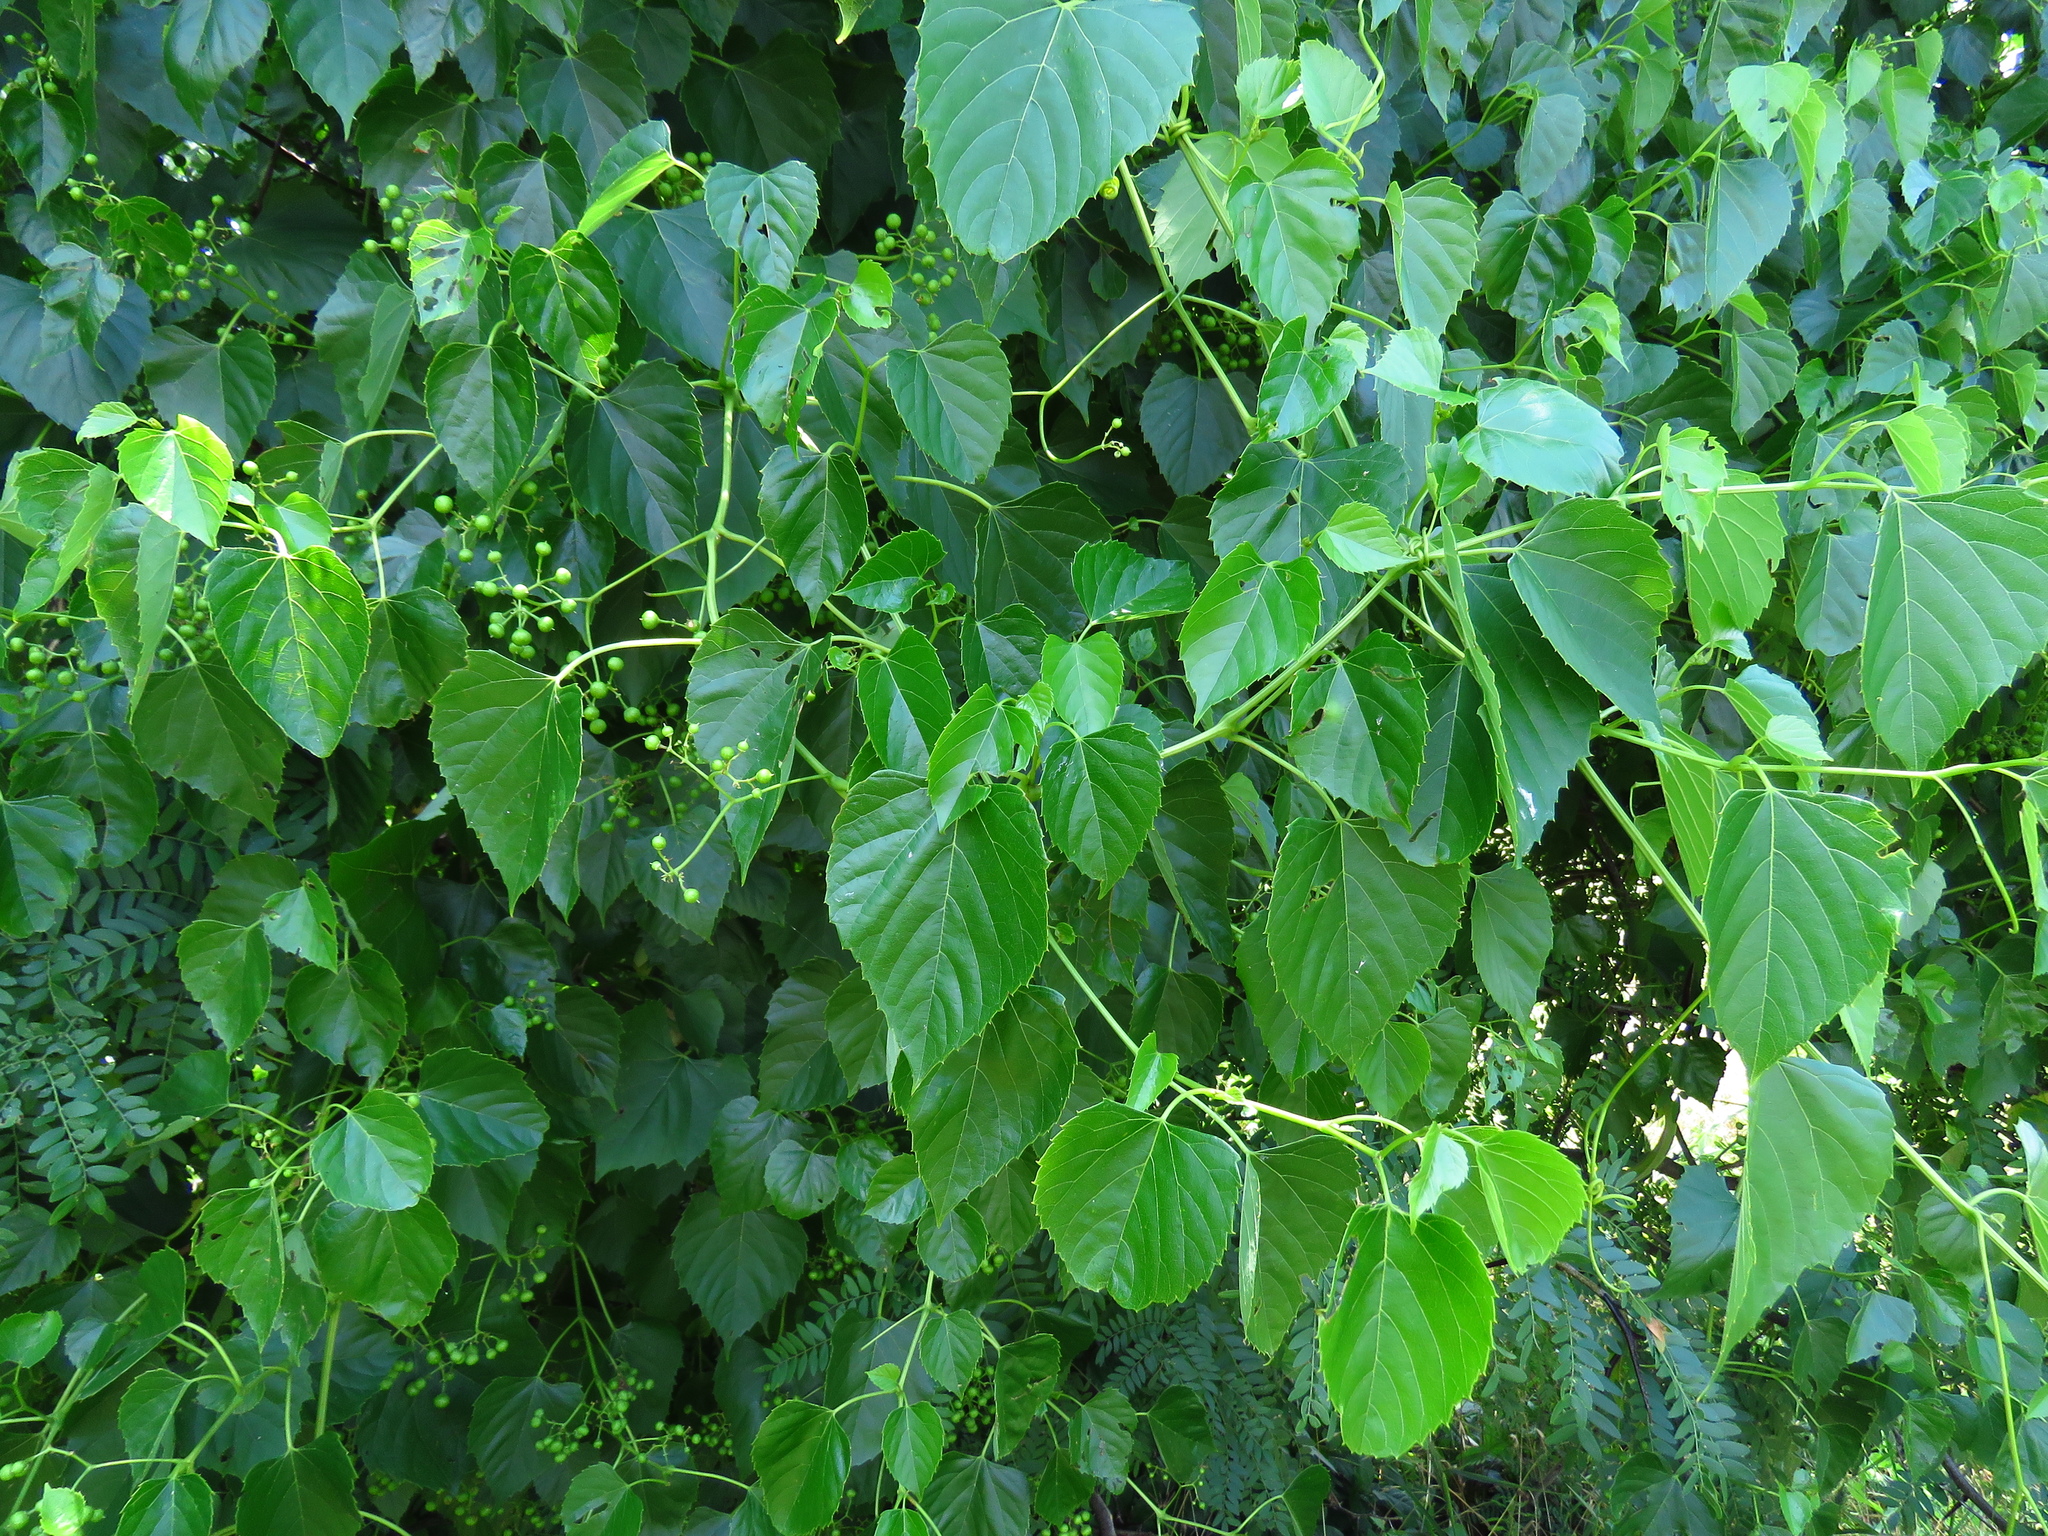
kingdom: Plantae
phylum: Tracheophyta
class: Magnoliopsida
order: Vitales
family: Vitaceae
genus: Ampelopsis
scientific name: Ampelopsis cordata
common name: Heart-leaf ampelopsis
